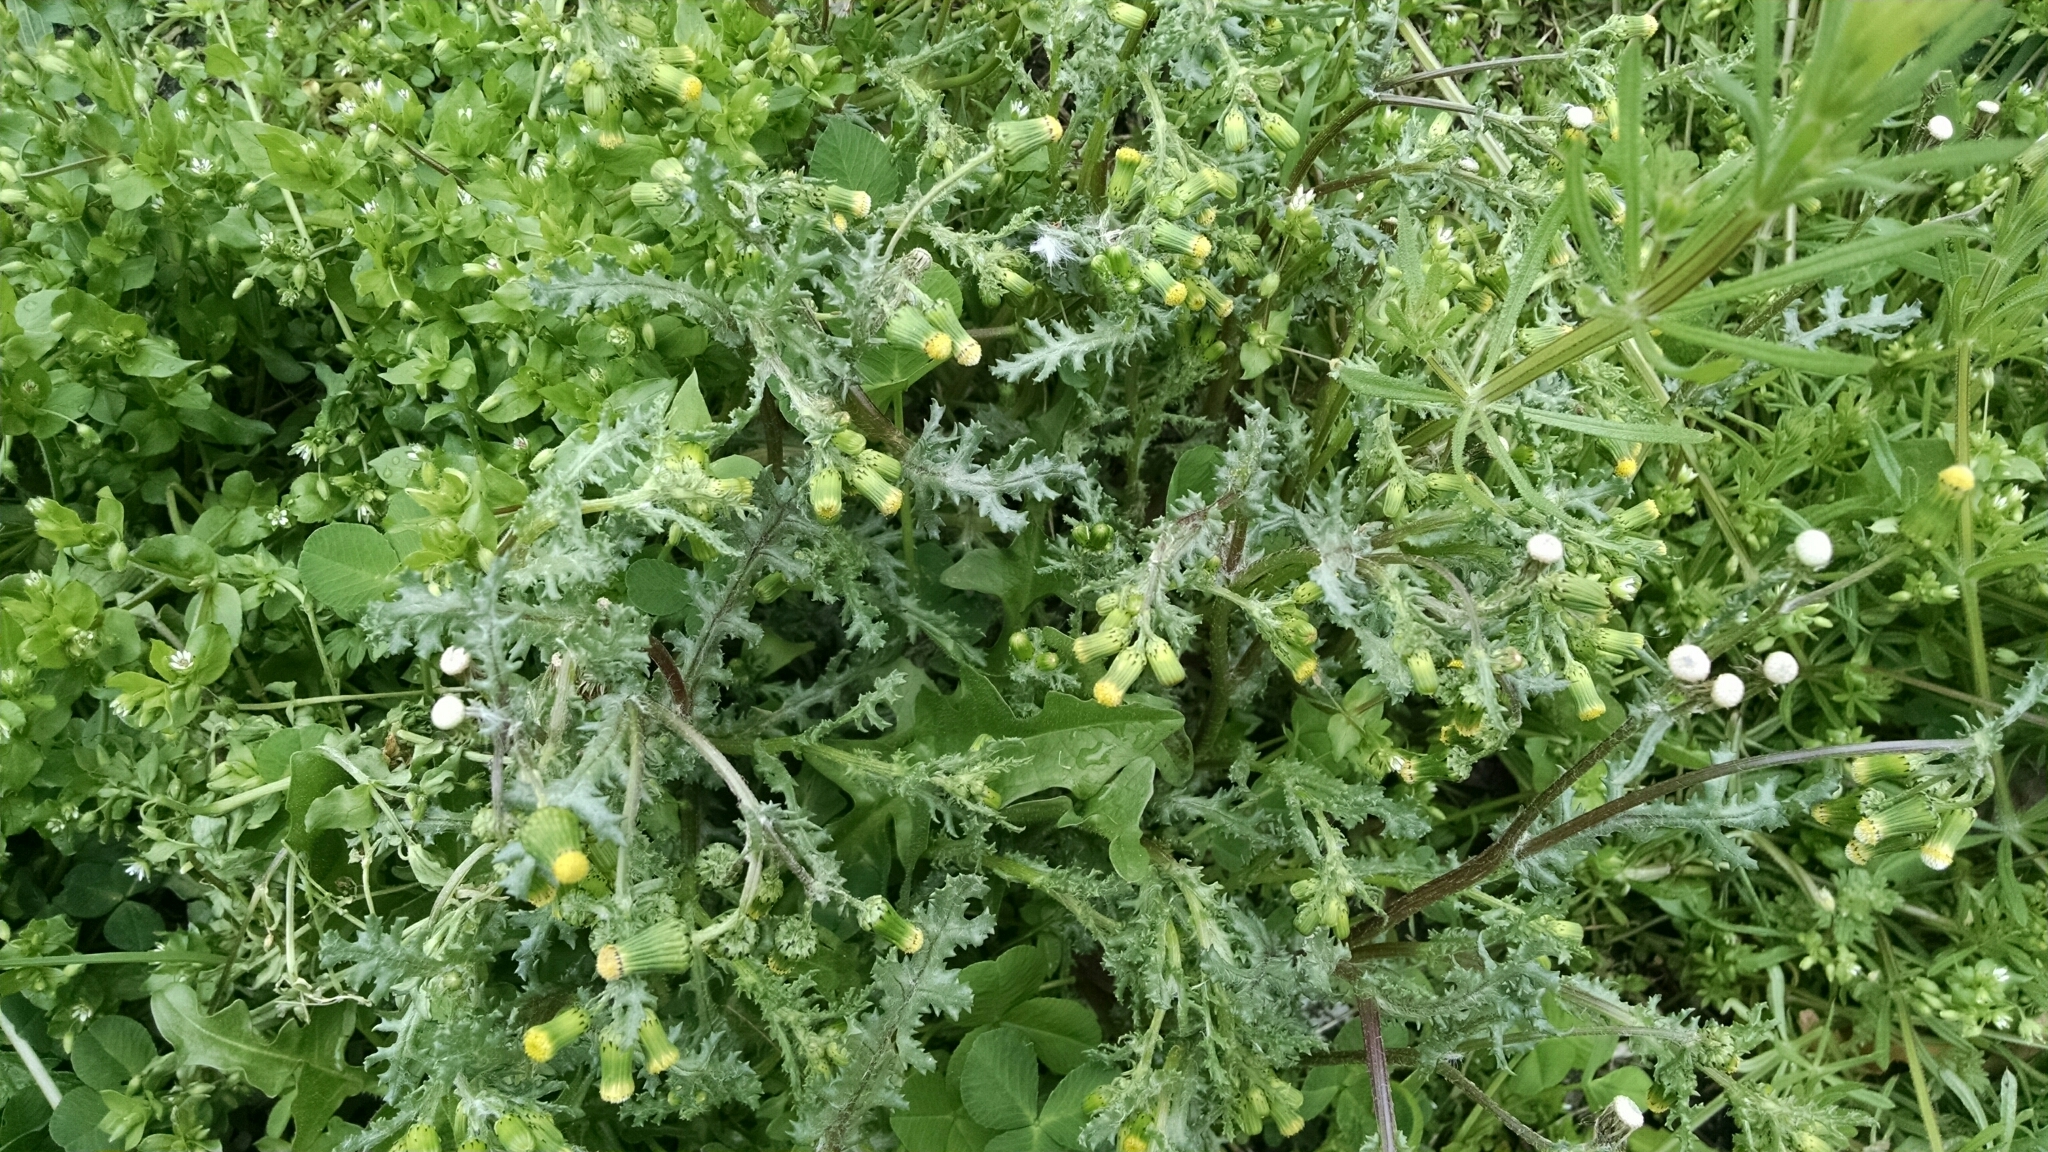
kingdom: Plantae
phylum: Tracheophyta
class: Magnoliopsida
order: Asterales
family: Asteraceae
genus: Senecio
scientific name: Senecio vulgaris
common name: Old-man-in-the-spring
